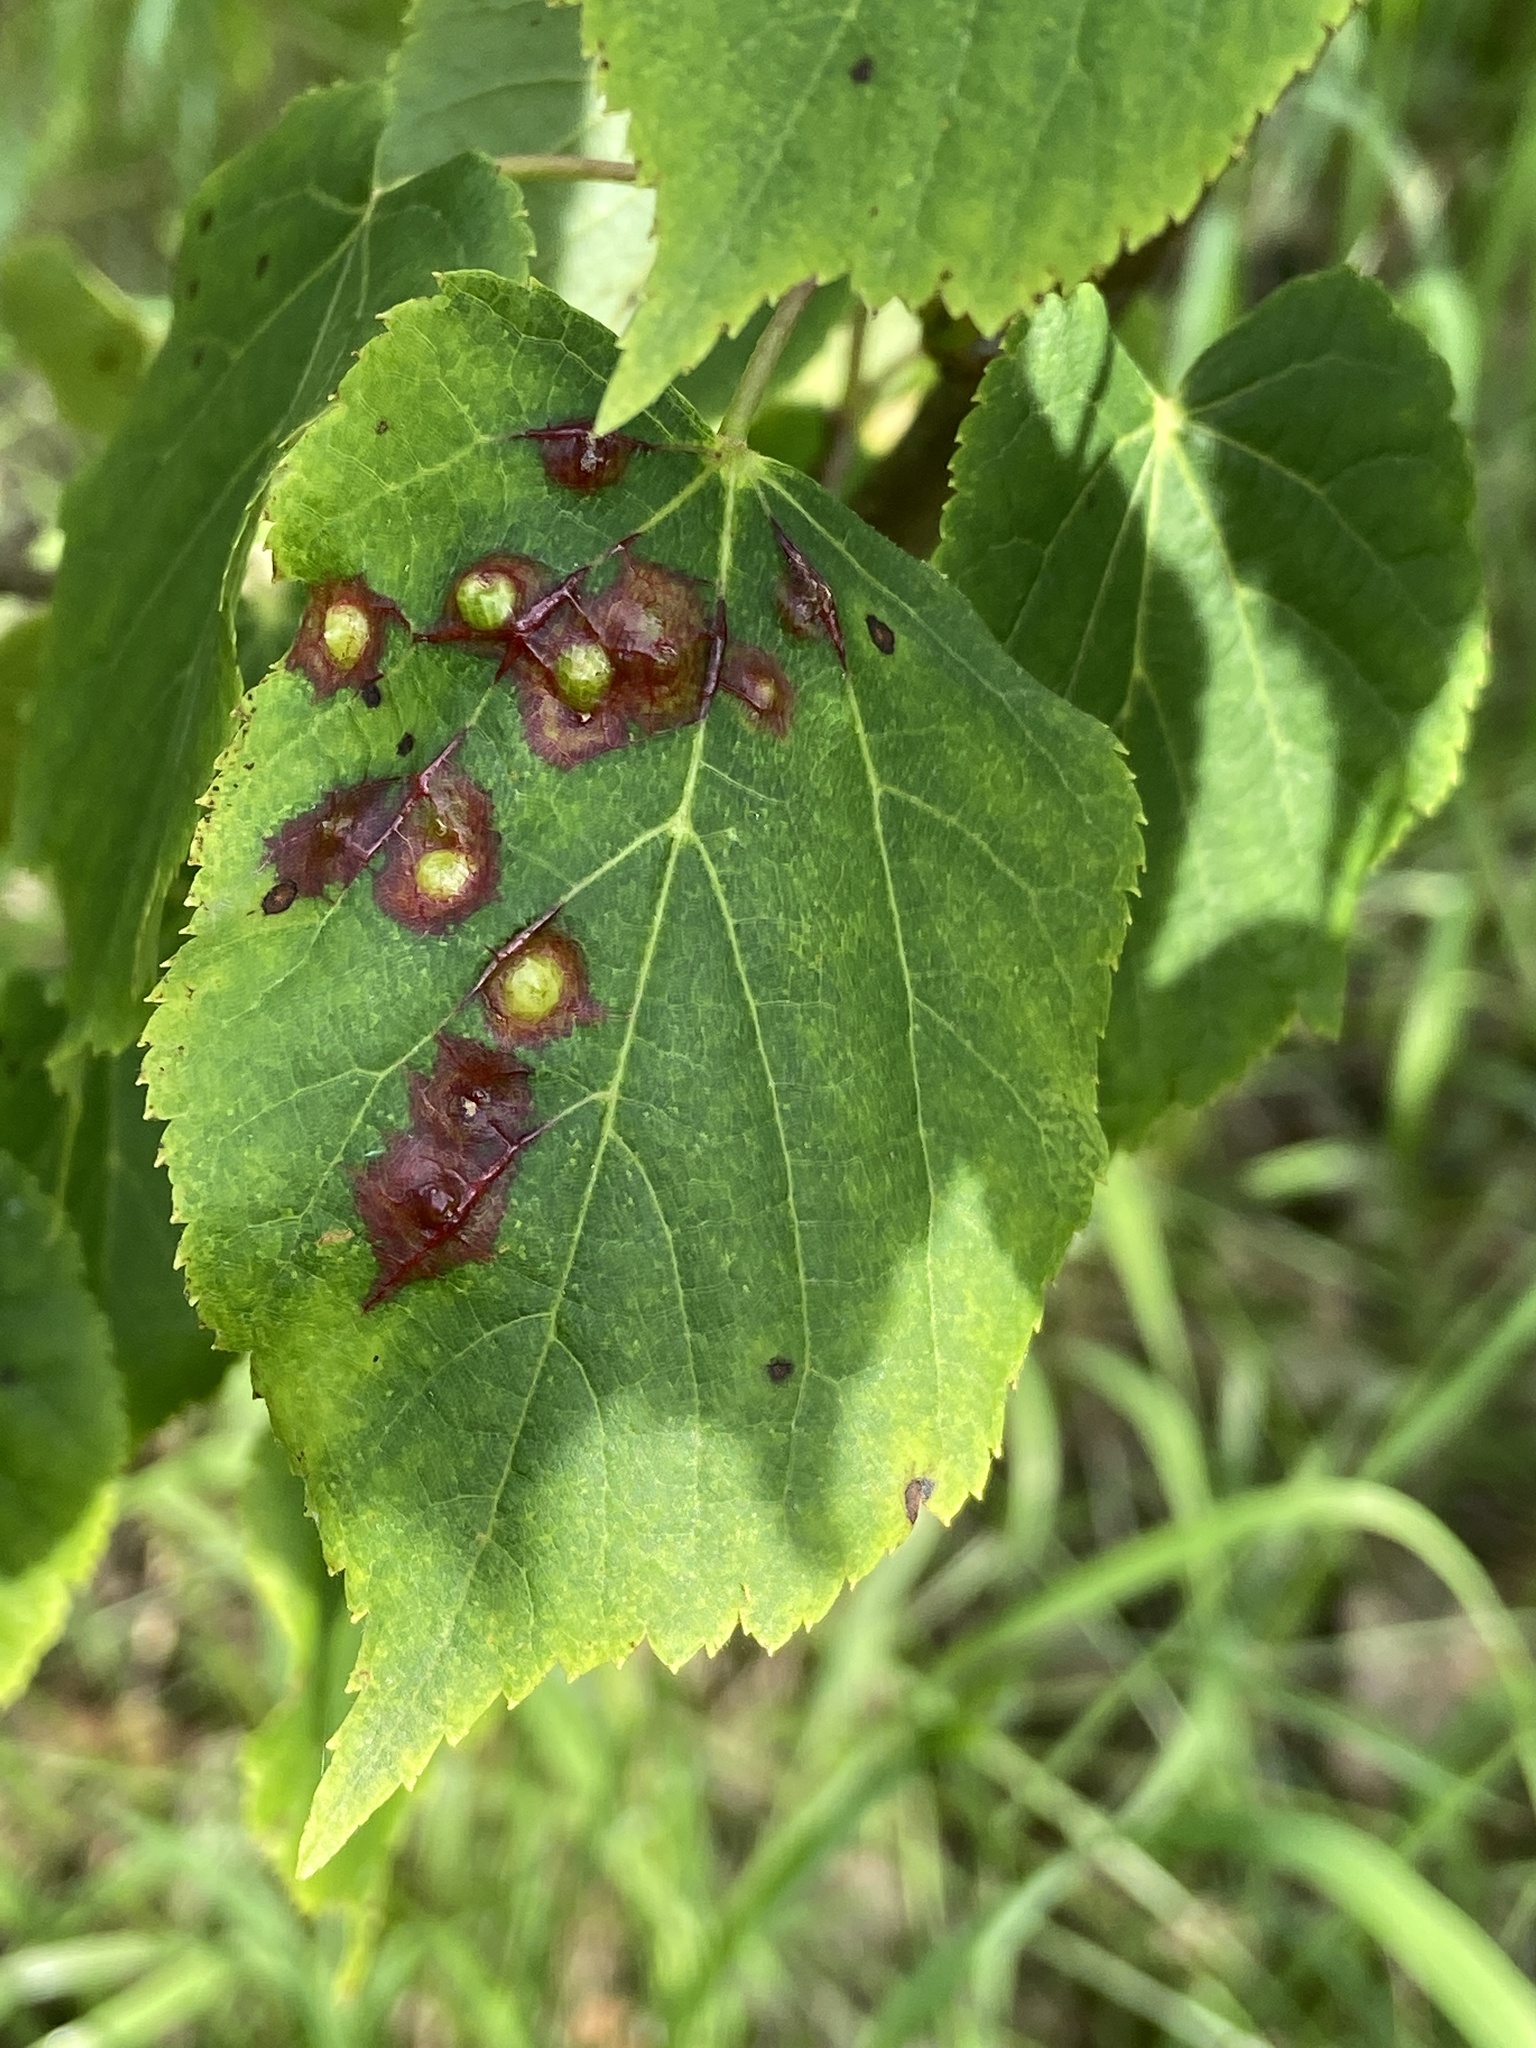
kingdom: Animalia
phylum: Arthropoda
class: Insecta
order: Diptera
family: Cecidomyiidae
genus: Didymomyia
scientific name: Didymomyia tiliacea
